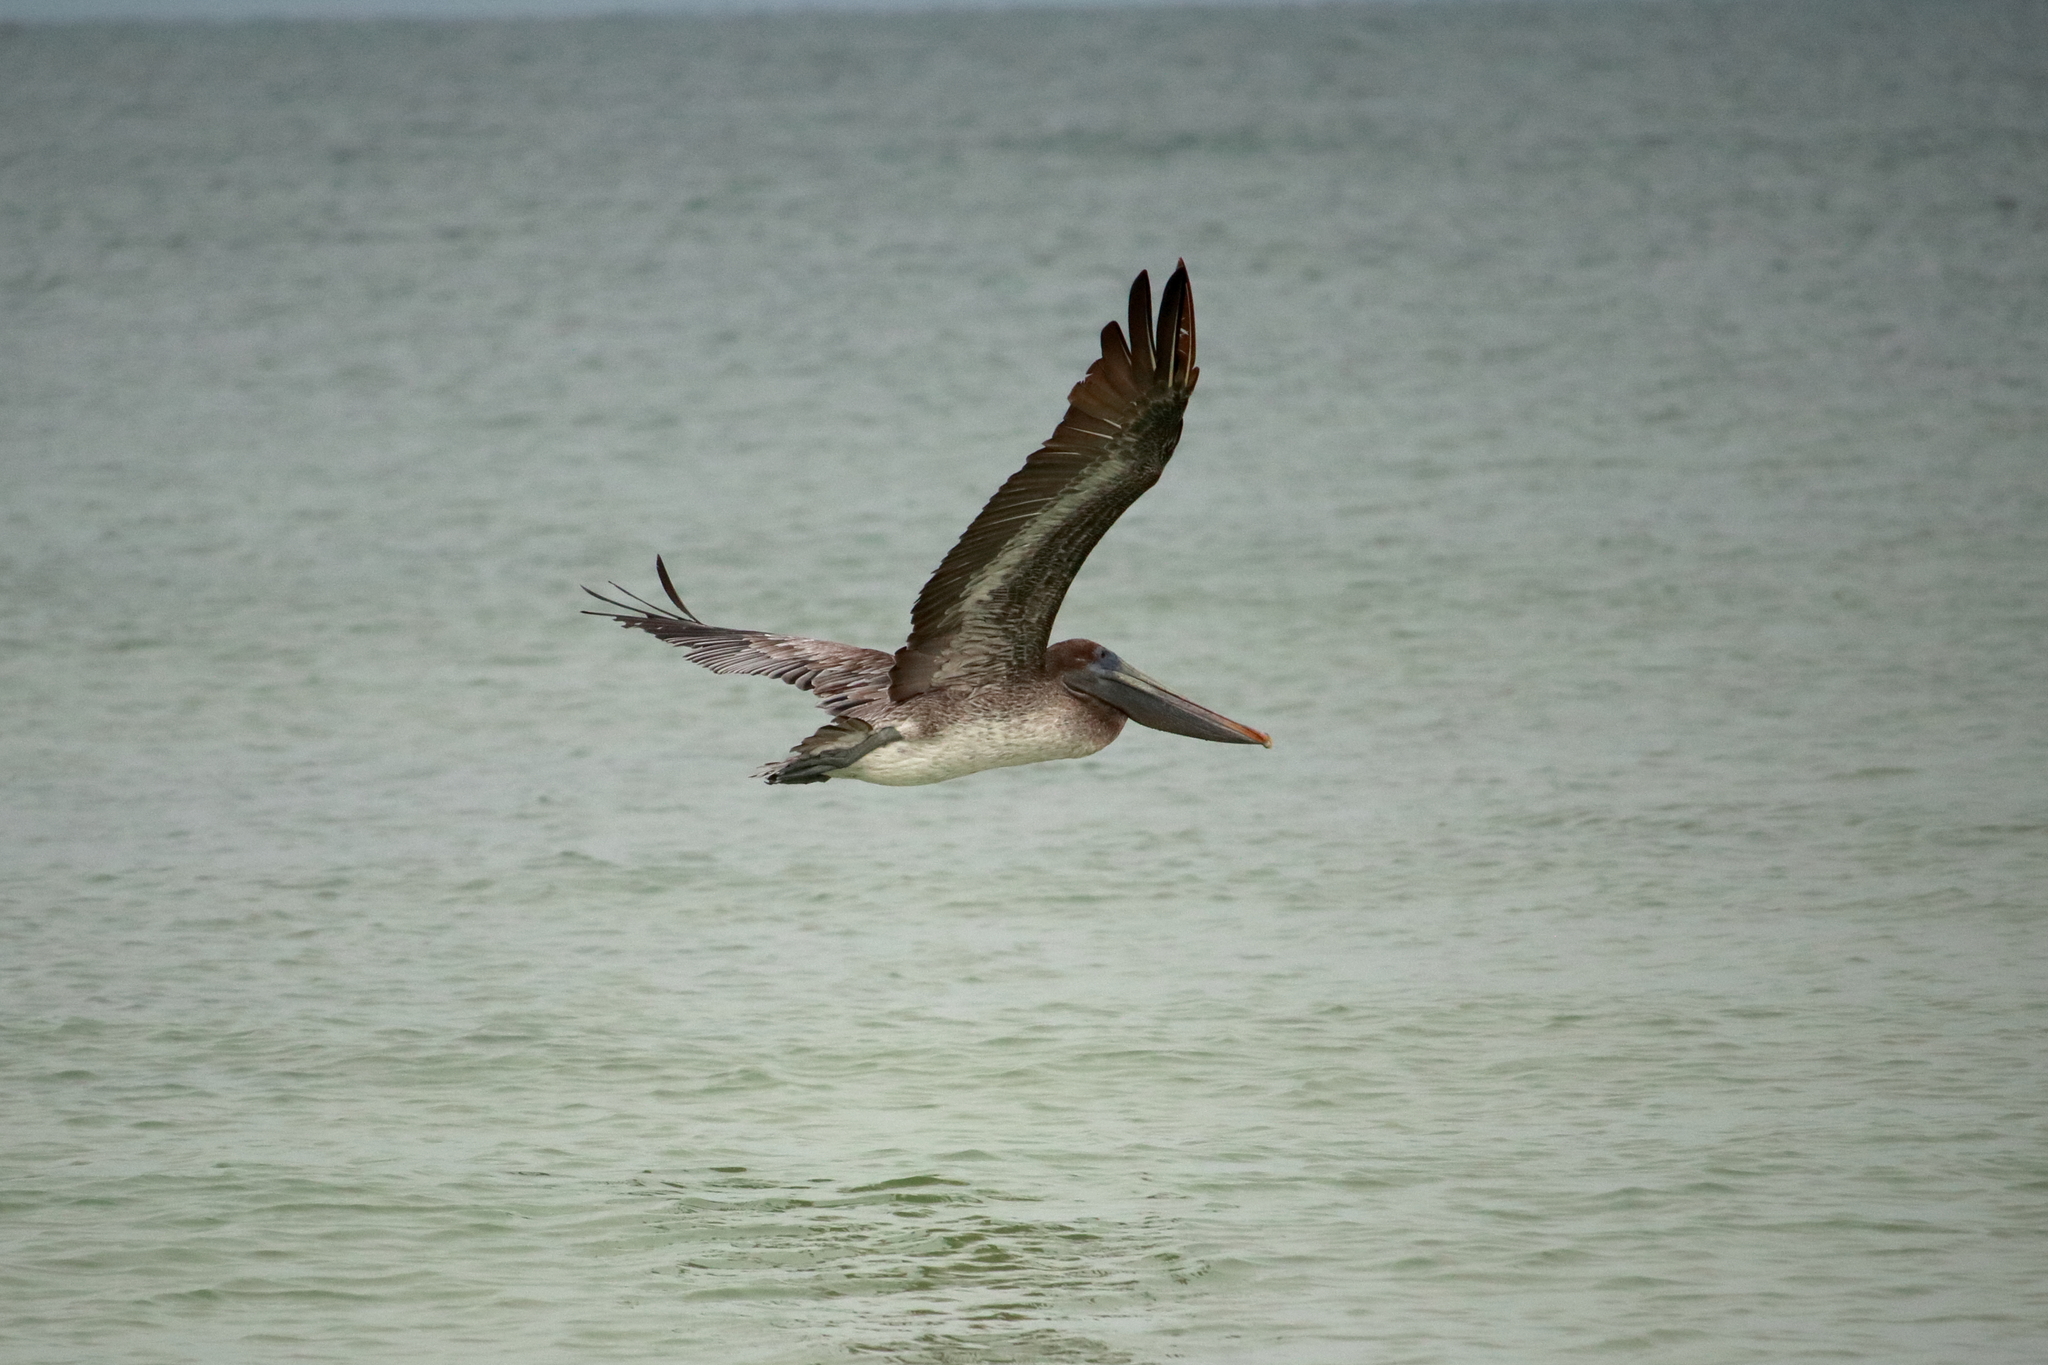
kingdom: Animalia
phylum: Chordata
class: Aves
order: Pelecaniformes
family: Pelecanidae
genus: Pelecanus
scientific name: Pelecanus occidentalis
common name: Brown pelican
